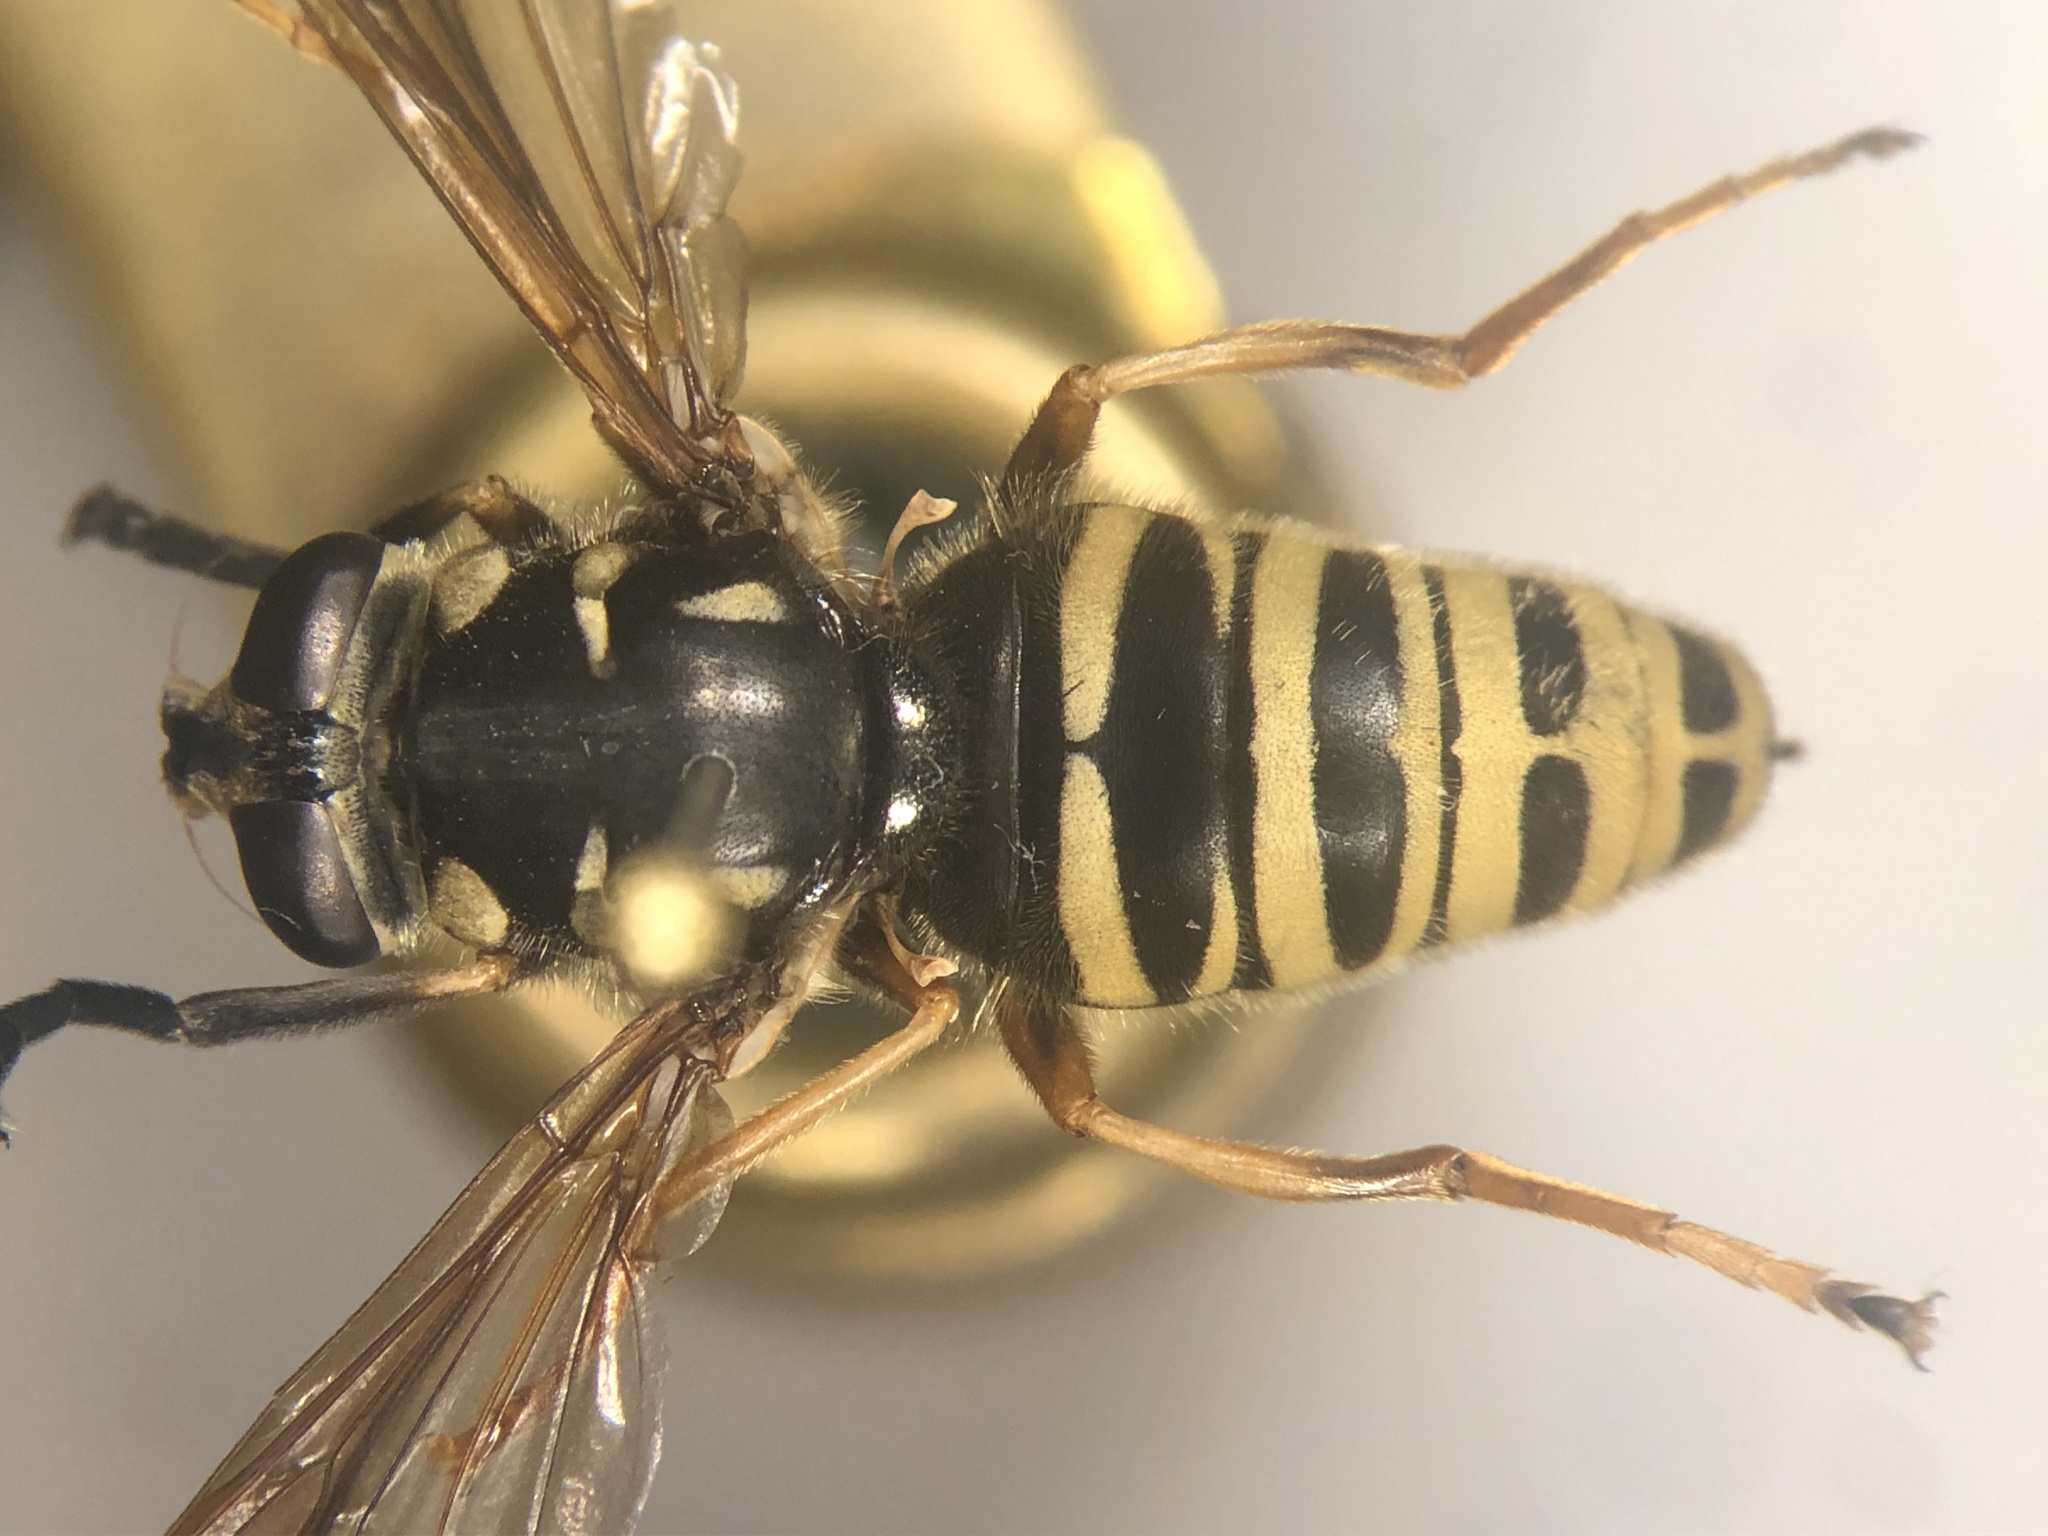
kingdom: Animalia
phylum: Arthropoda
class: Insecta
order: Diptera
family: Syrphidae
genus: Temnostoma
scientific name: Temnostoma excentricum
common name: Black-spotted falsehorn
